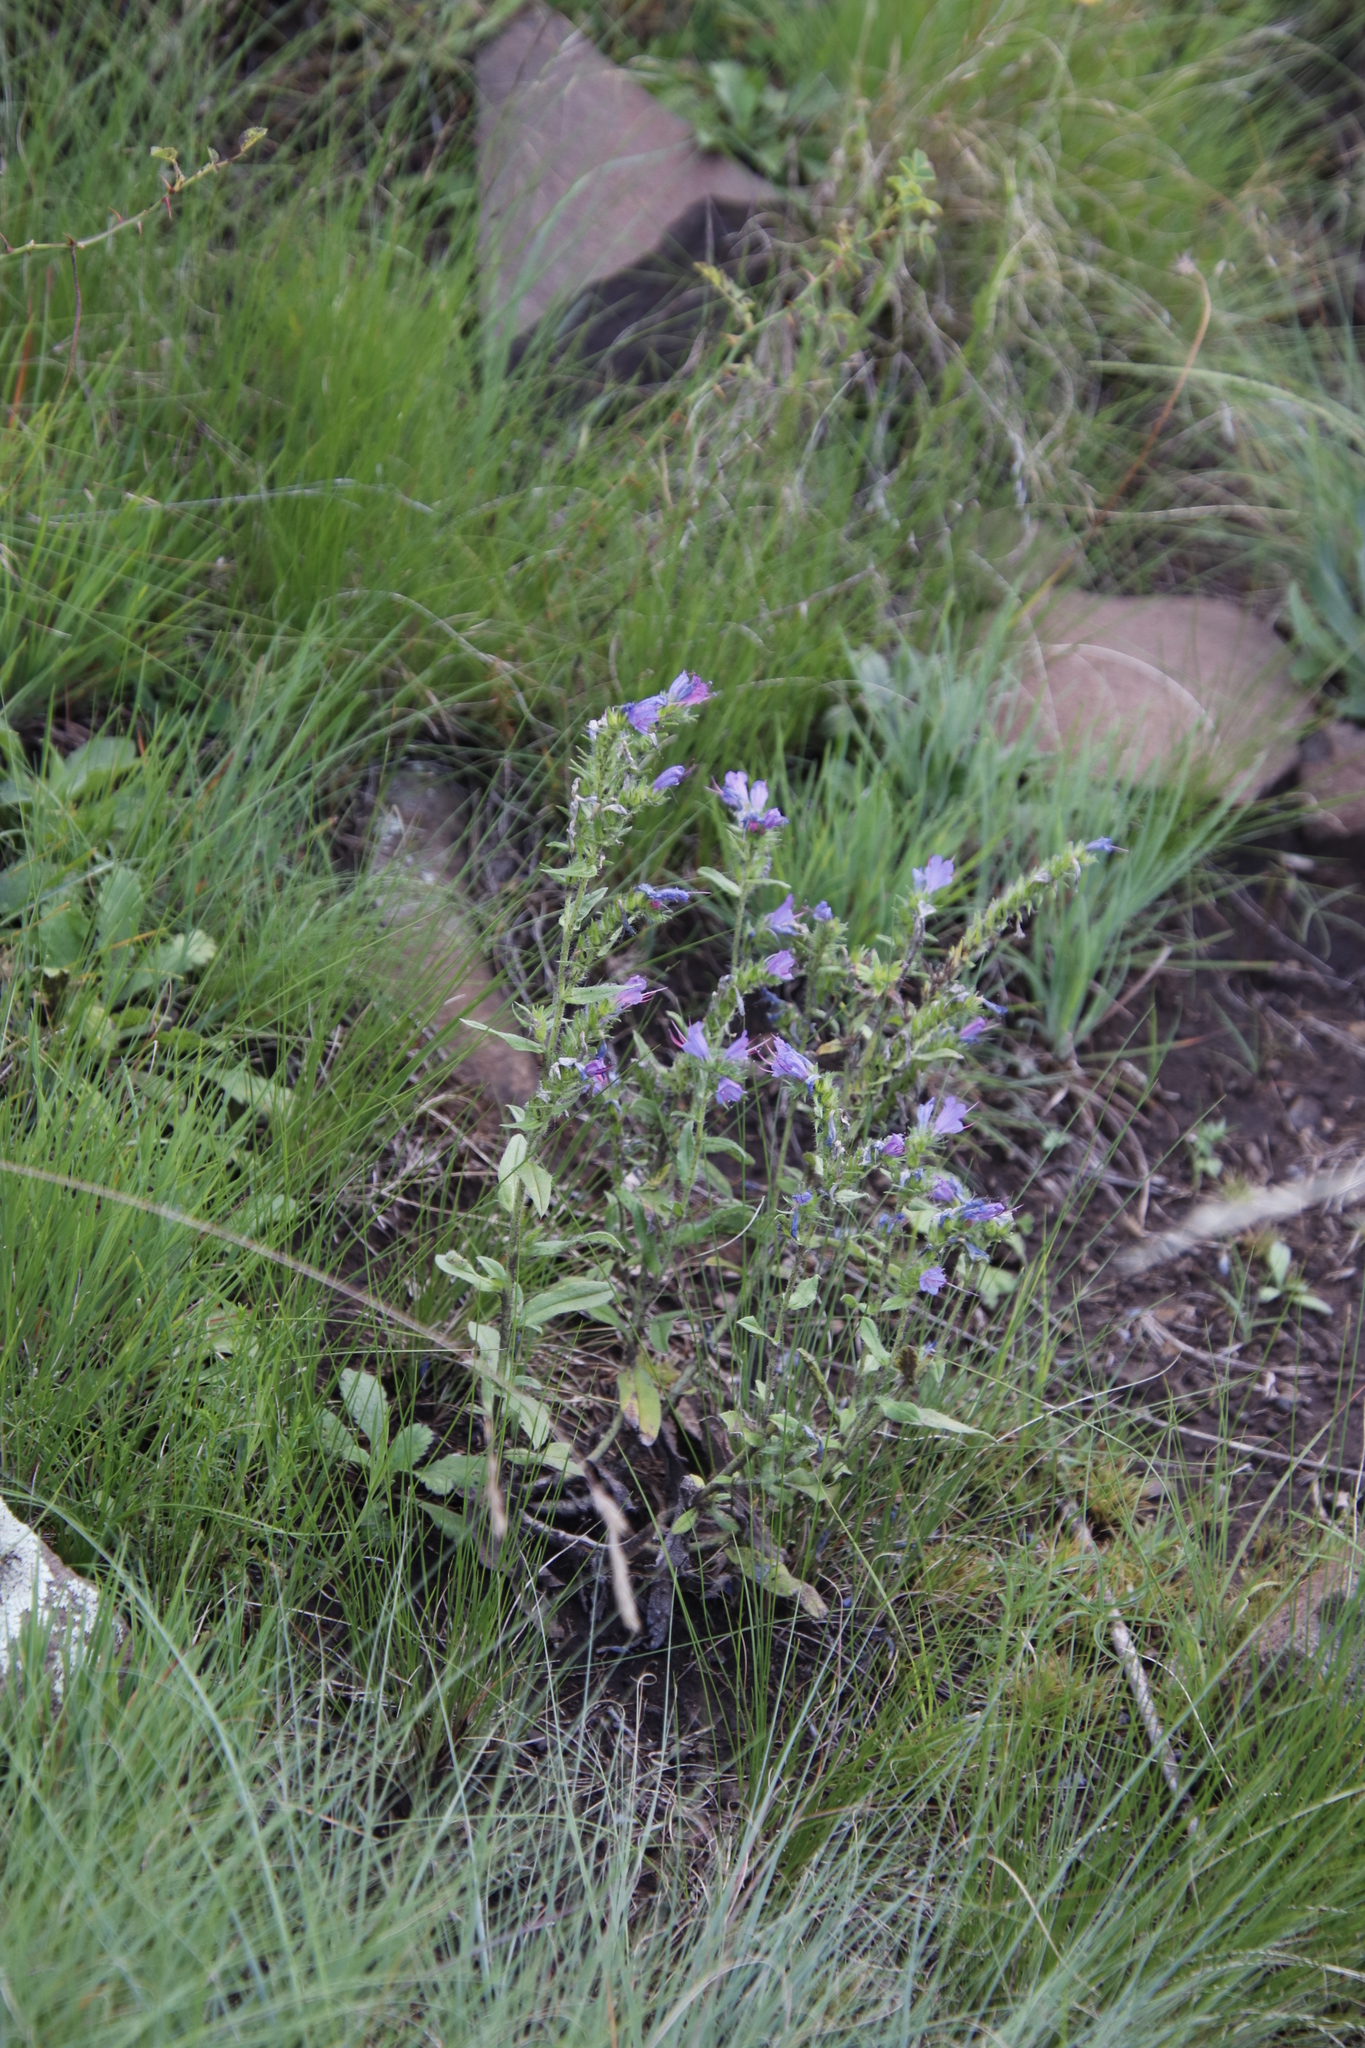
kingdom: Plantae
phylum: Tracheophyta
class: Magnoliopsida
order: Boraginales
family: Boraginaceae
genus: Echium
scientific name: Echium vulgare
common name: Common viper's bugloss
